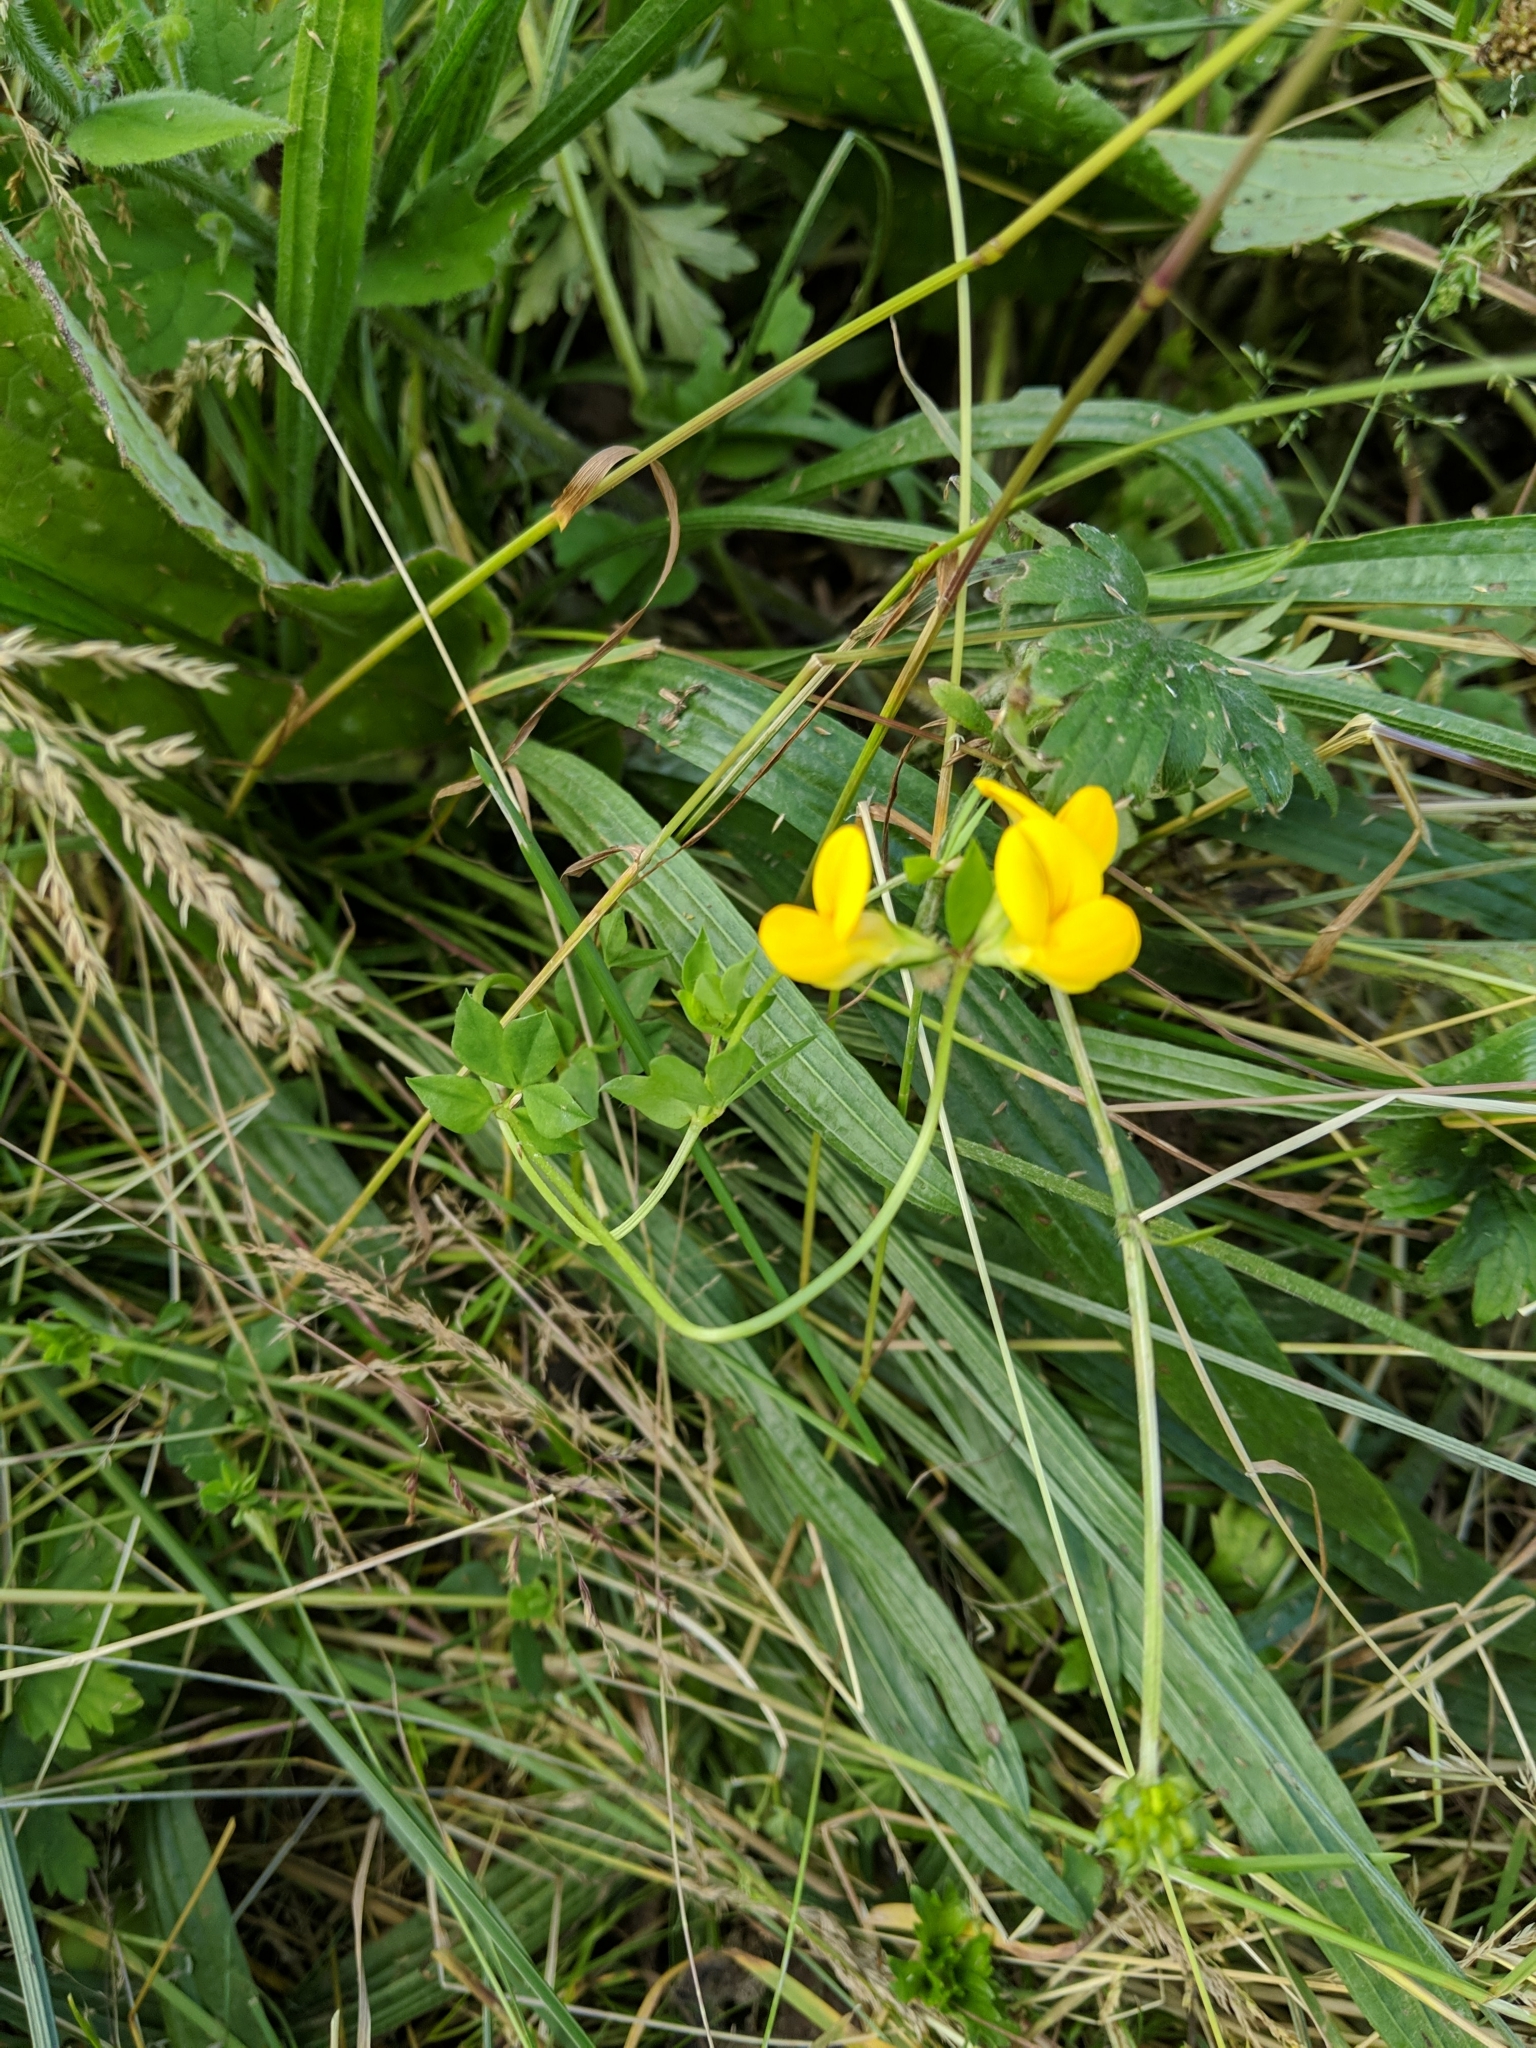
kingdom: Plantae
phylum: Tracheophyta
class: Magnoliopsida
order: Fabales
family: Fabaceae
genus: Lathyrus
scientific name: Lathyrus pratensis
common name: Meadow vetchling
